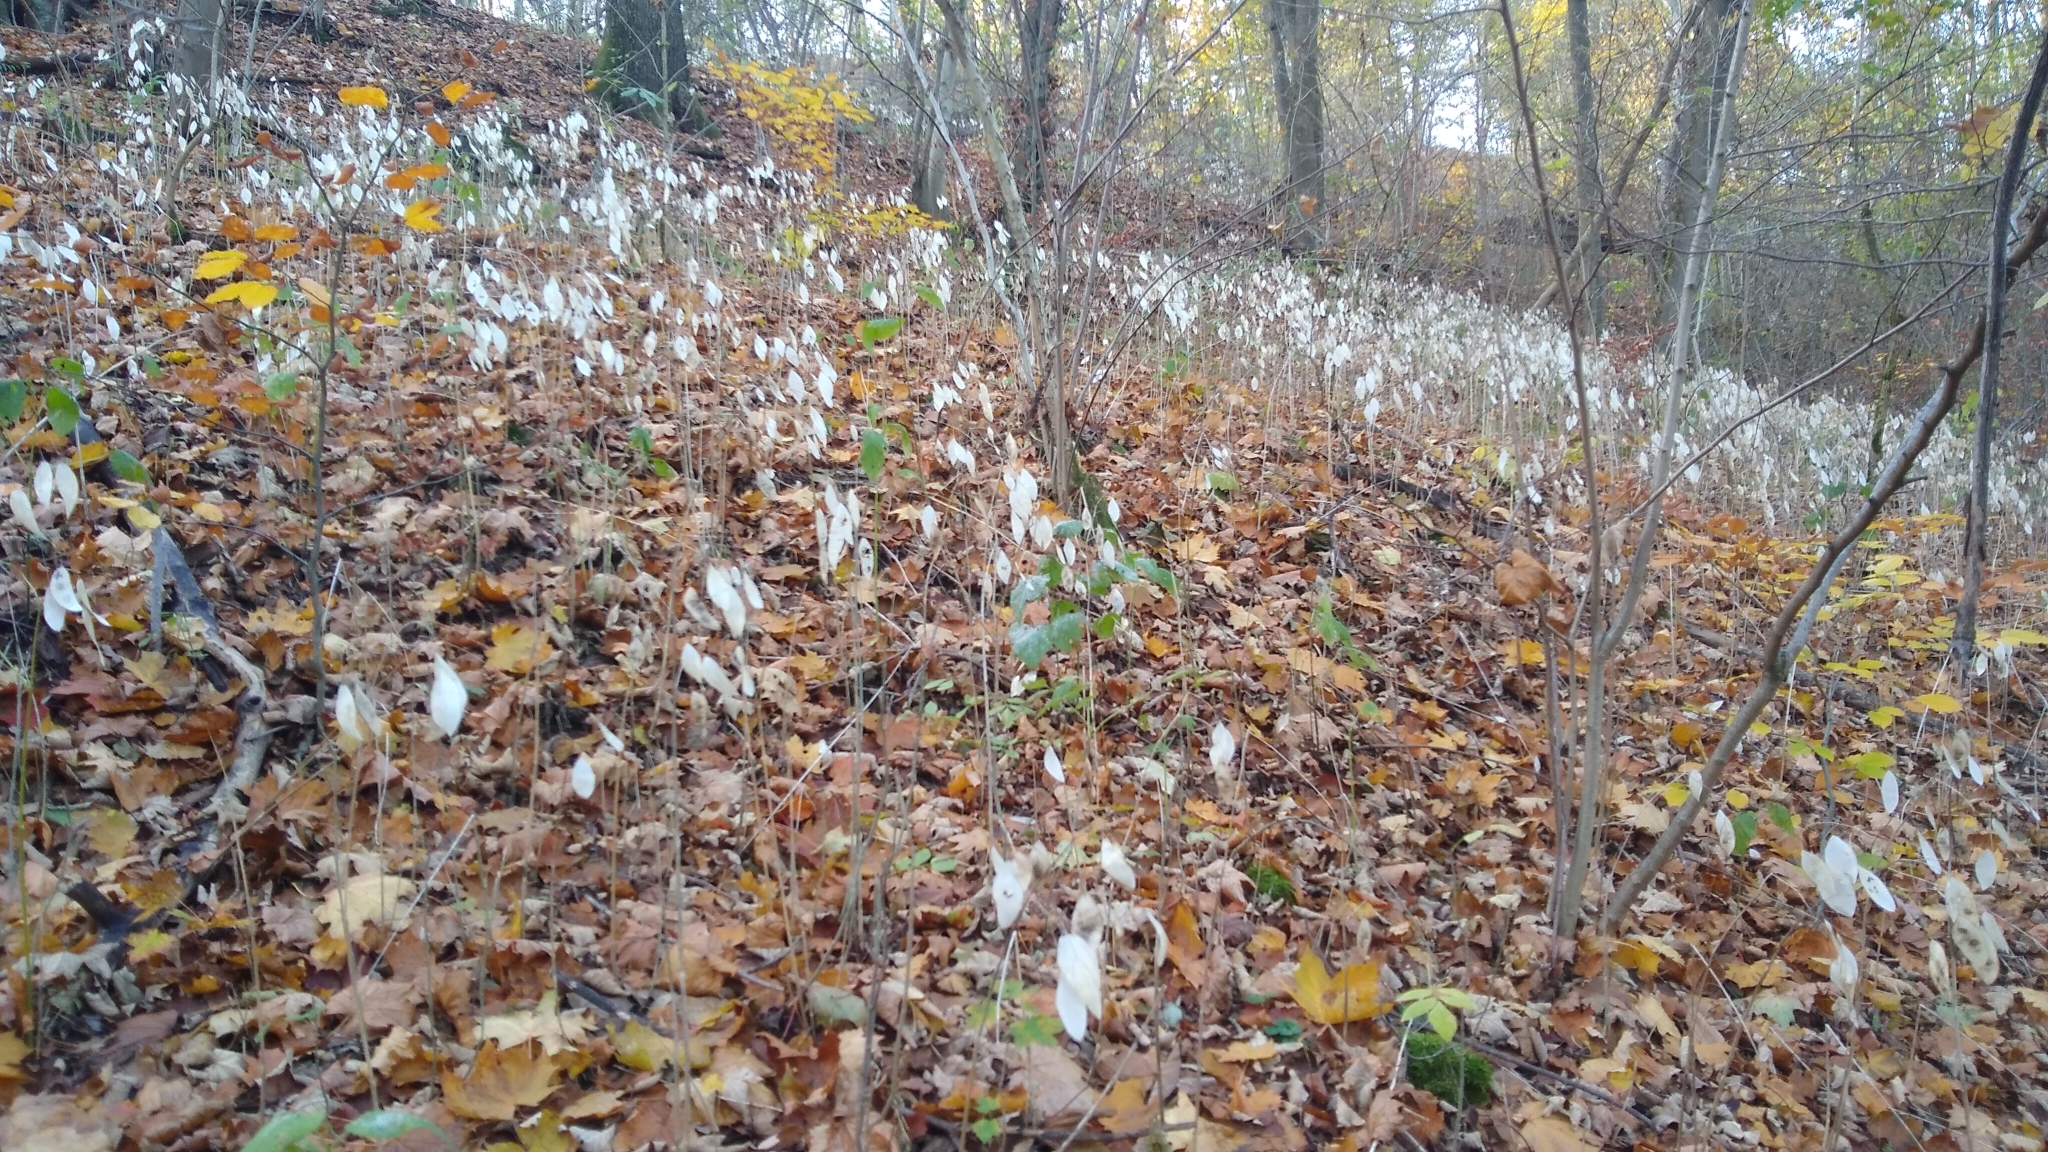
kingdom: Plantae
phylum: Tracheophyta
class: Magnoliopsida
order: Brassicales
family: Brassicaceae
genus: Lunaria
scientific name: Lunaria rediviva
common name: Perennial honesty
